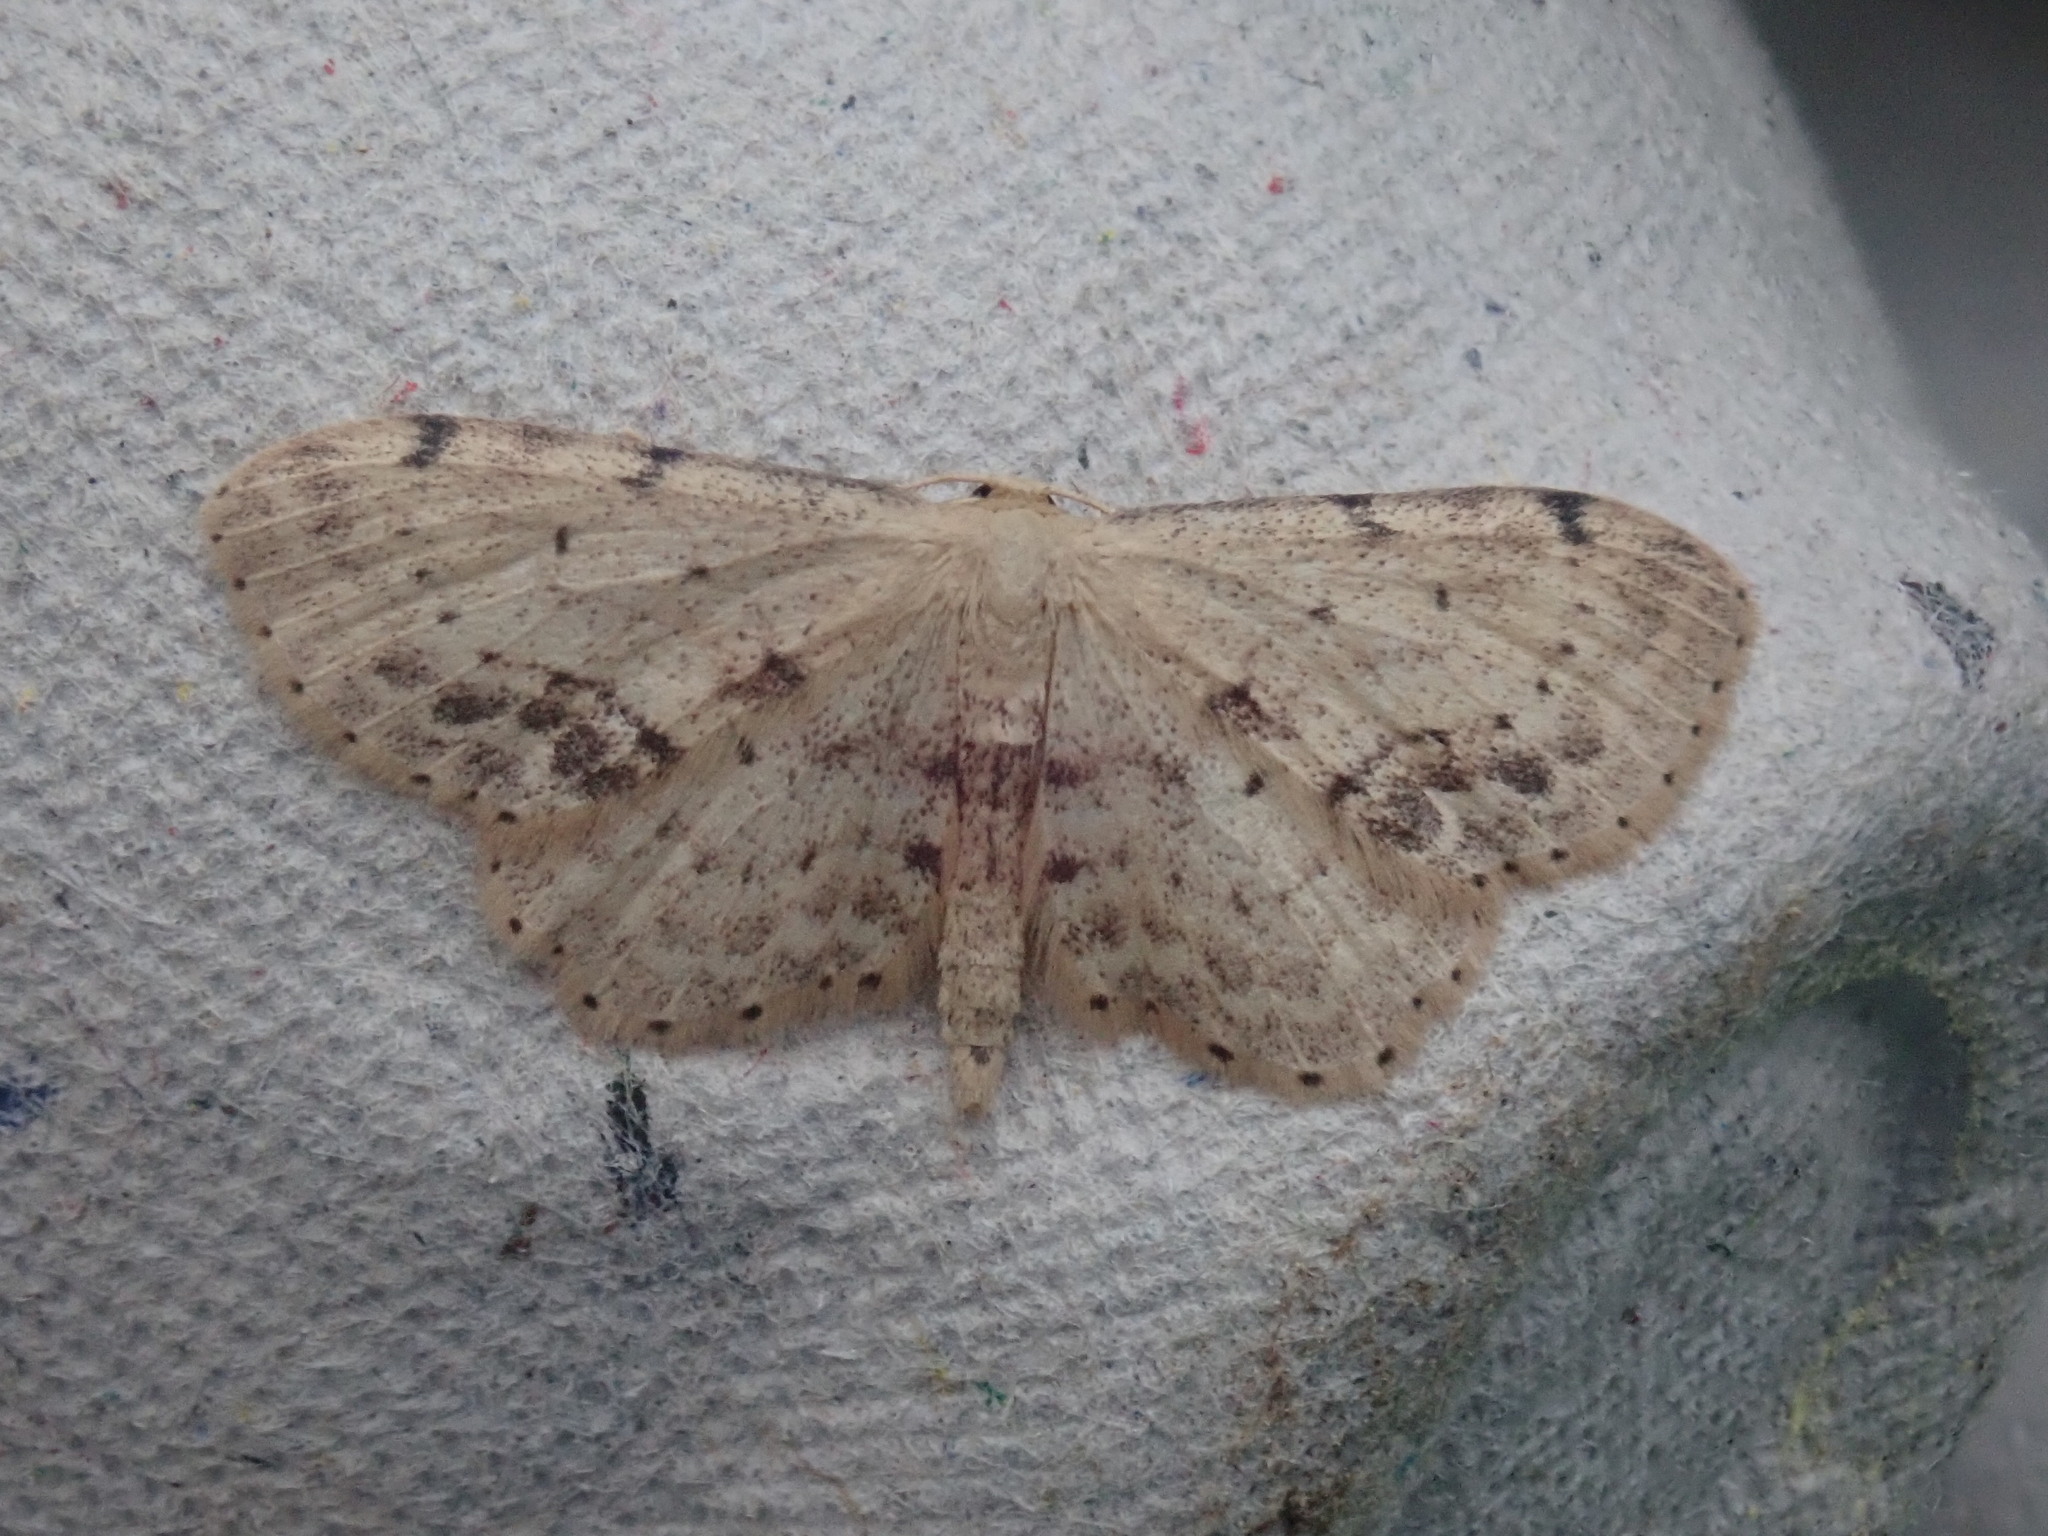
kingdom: Animalia
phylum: Arthropoda
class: Insecta
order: Lepidoptera
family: Geometridae
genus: Idaea
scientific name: Idaea dimidiata
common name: Single-dotted wave
